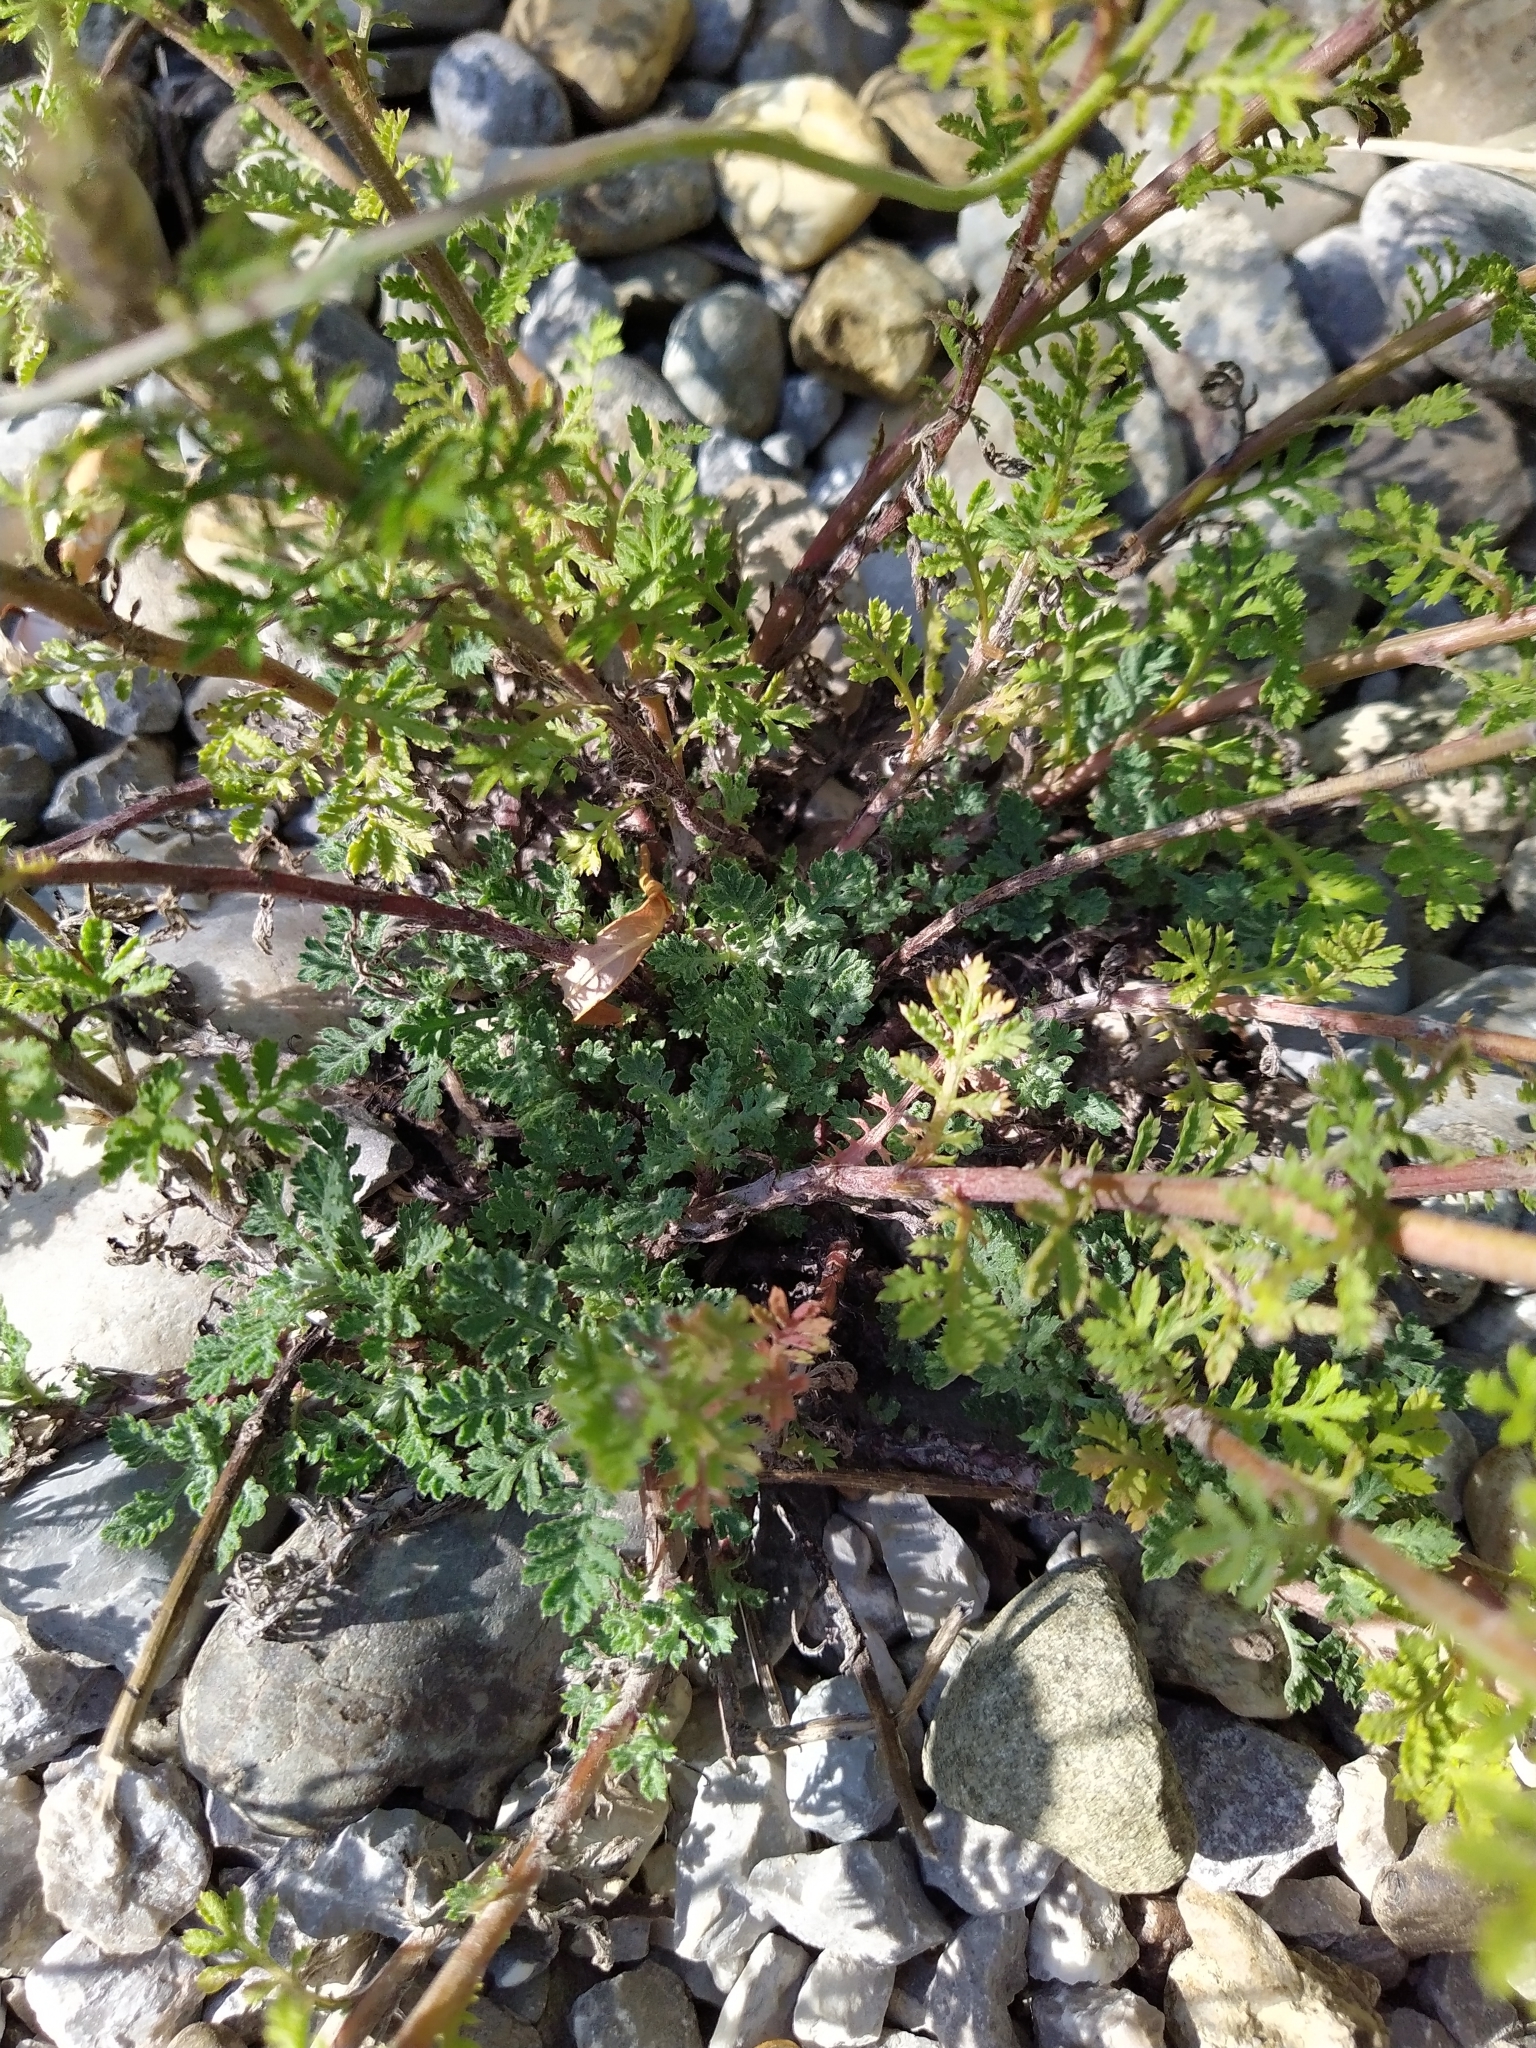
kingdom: Plantae
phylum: Tracheophyta
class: Magnoliopsida
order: Asterales
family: Asteraceae
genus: Cota
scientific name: Cota tinctoria
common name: Golden chamomile
